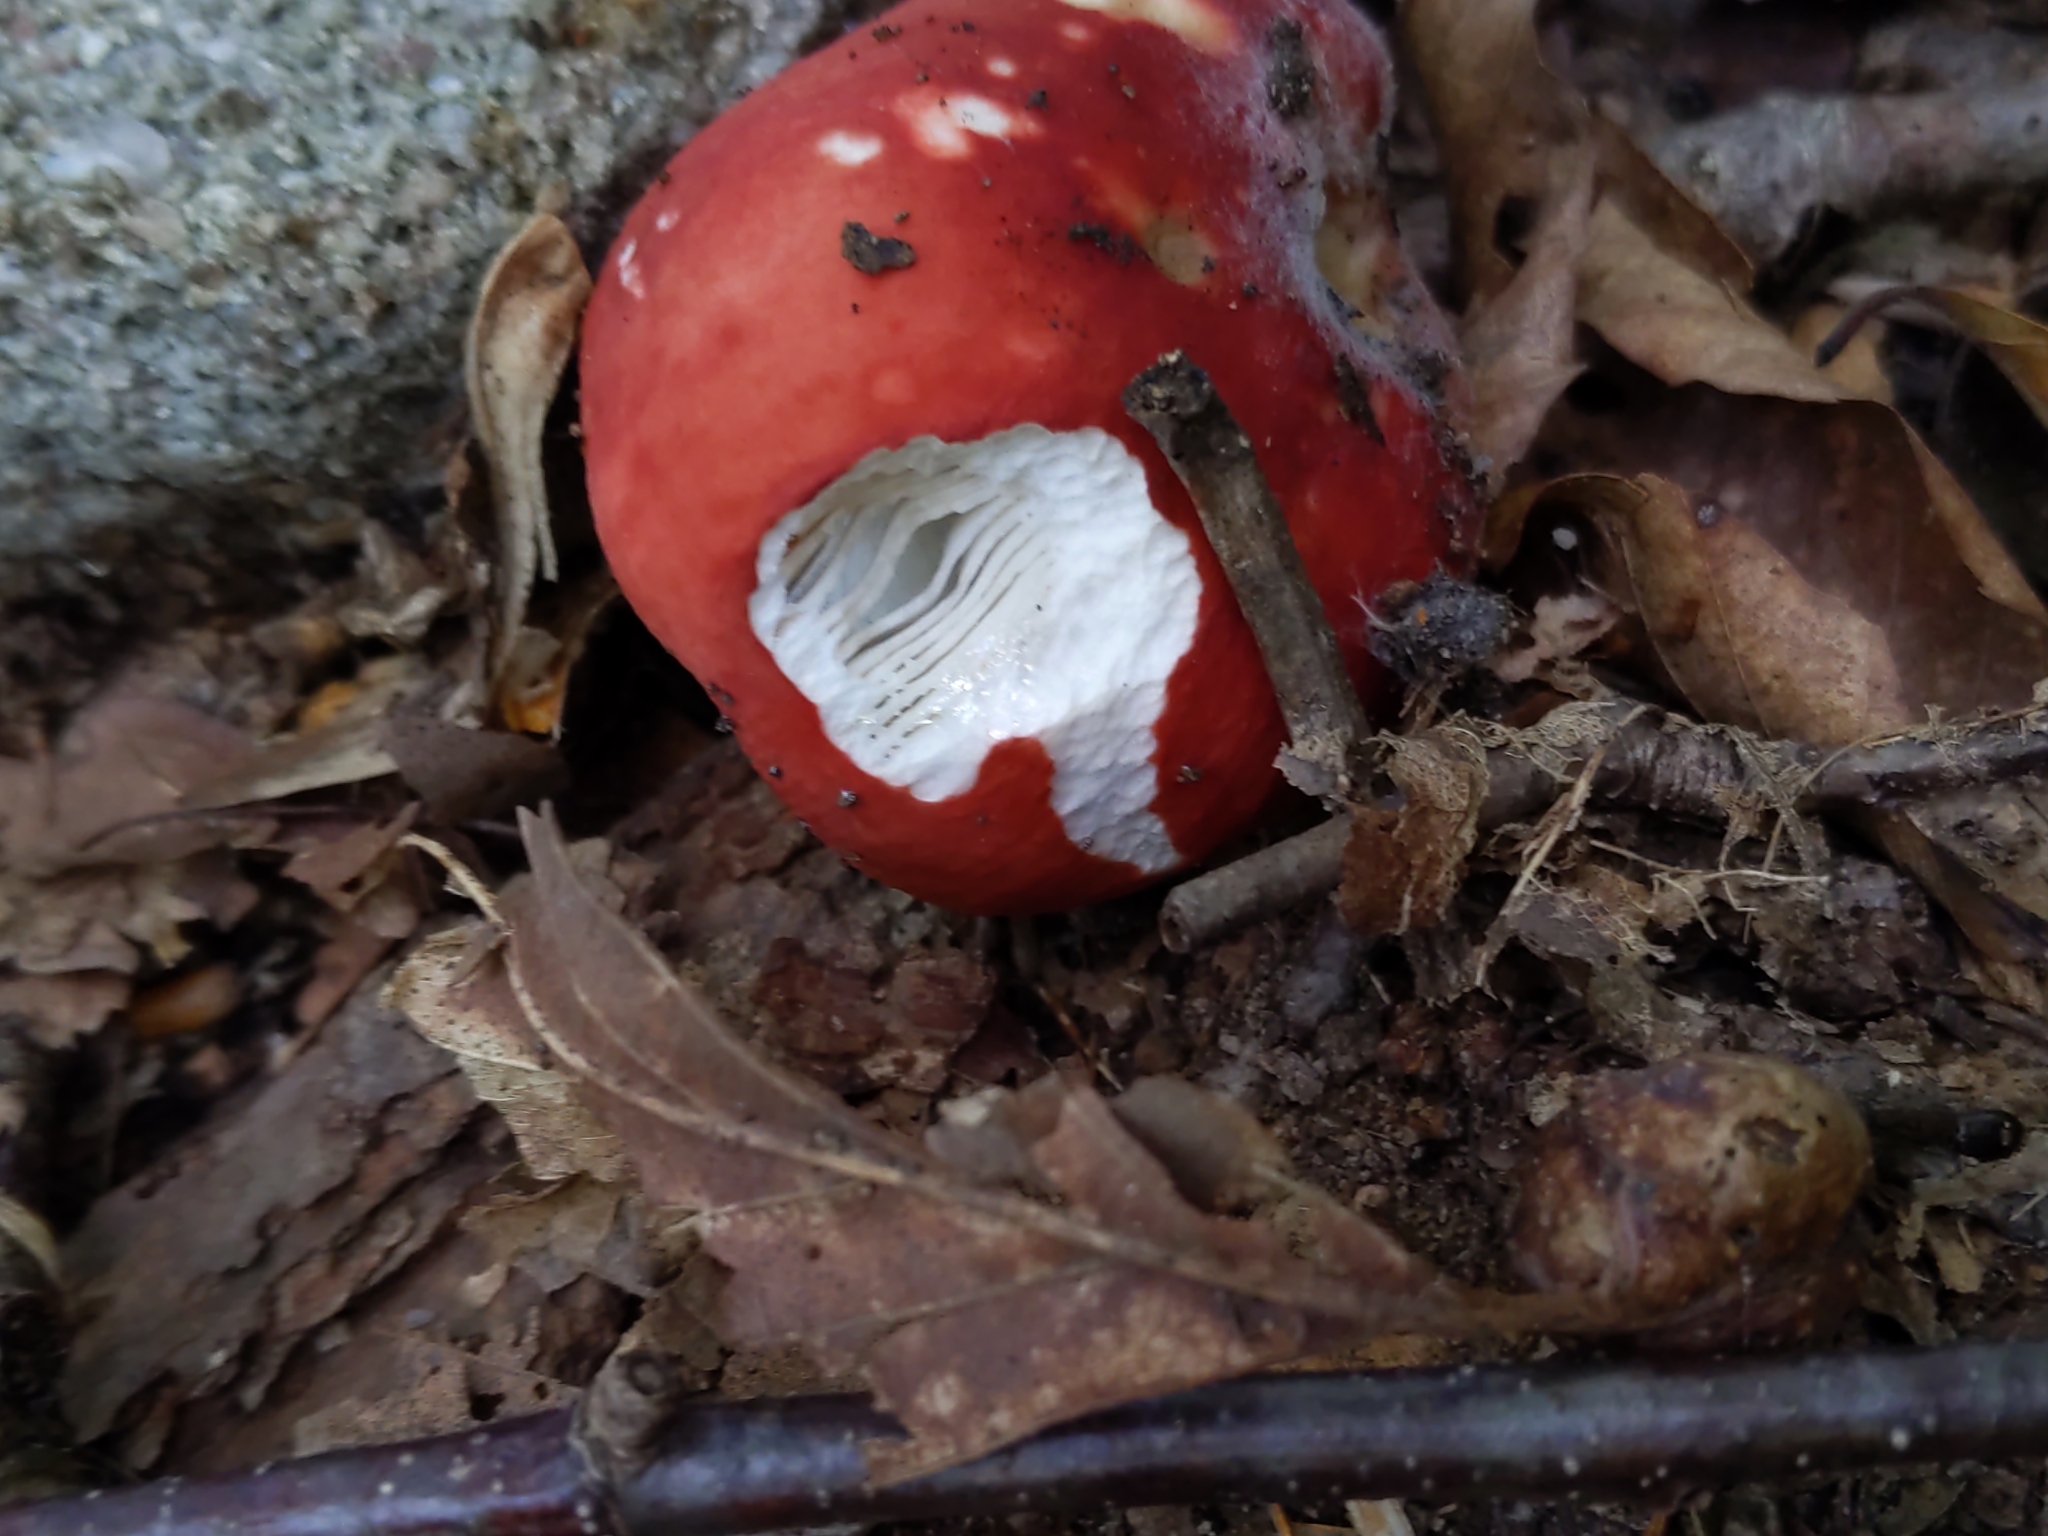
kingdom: Fungi
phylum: Basidiomycota
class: Agaricomycetes
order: Russulales
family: Russulaceae
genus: Russula
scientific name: Russula
